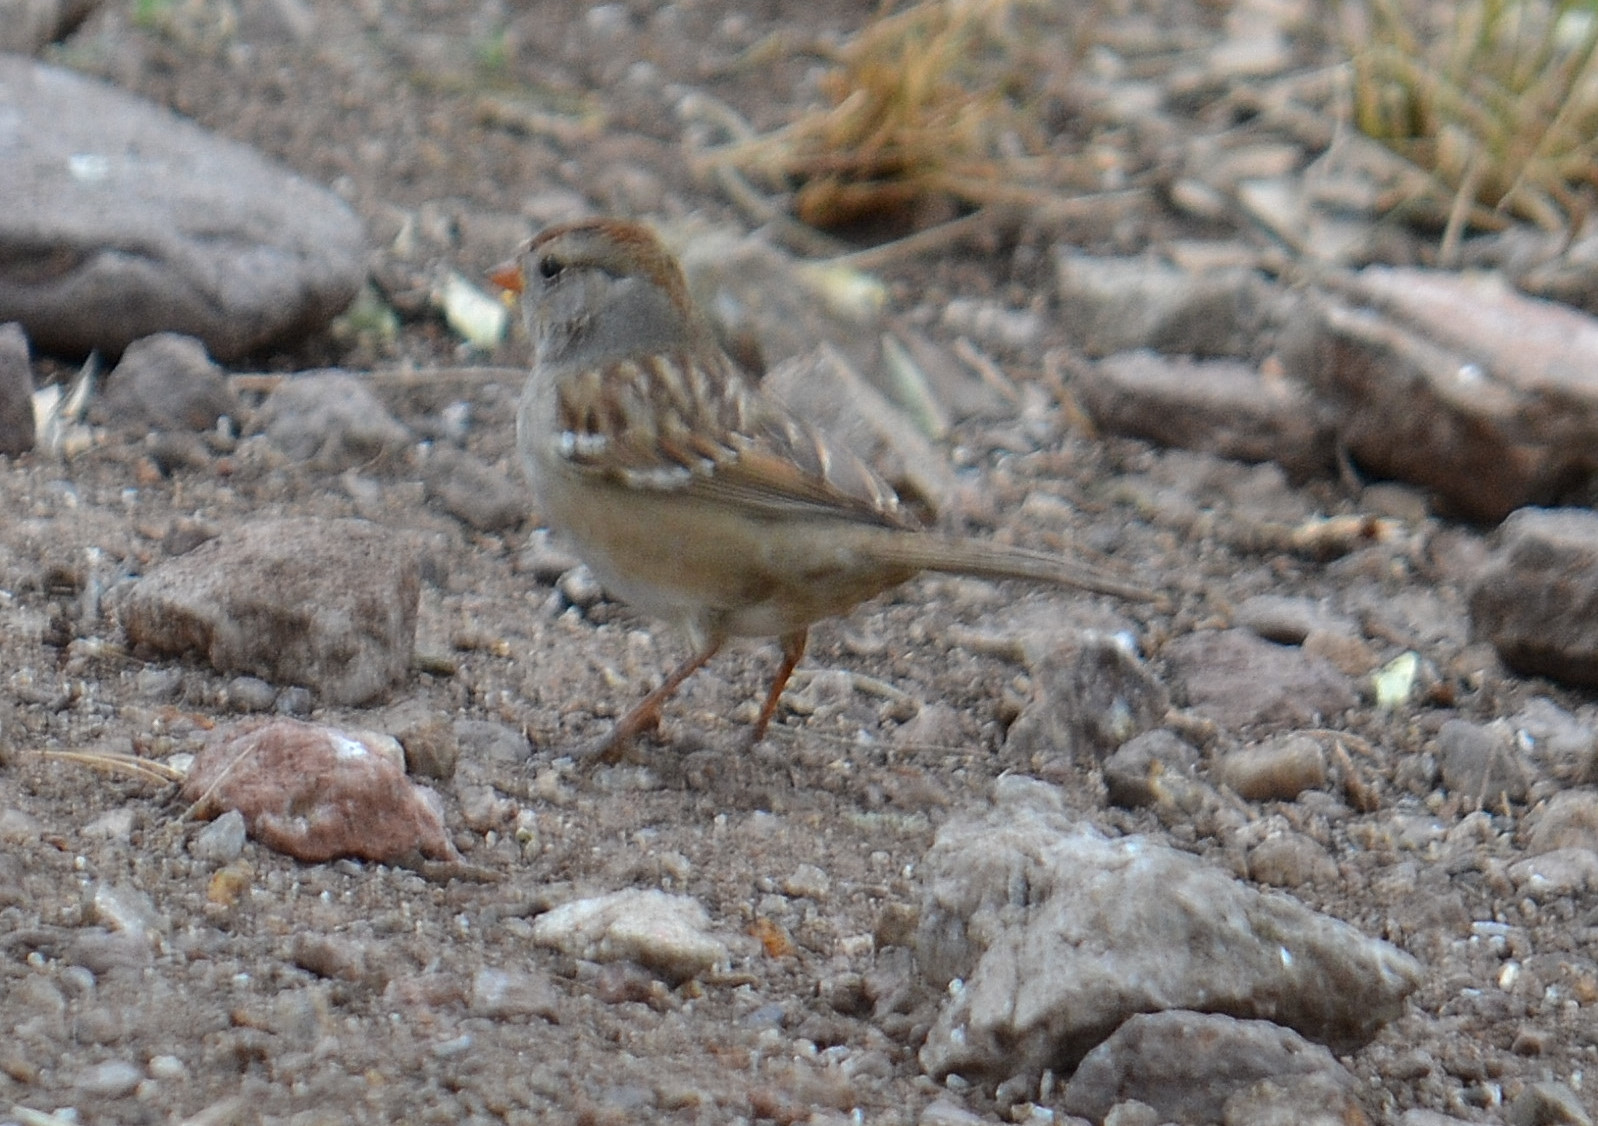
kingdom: Animalia
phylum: Chordata
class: Aves
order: Passeriformes
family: Passerellidae
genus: Zonotrichia
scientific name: Zonotrichia leucophrys
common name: White-crowned sparrow
